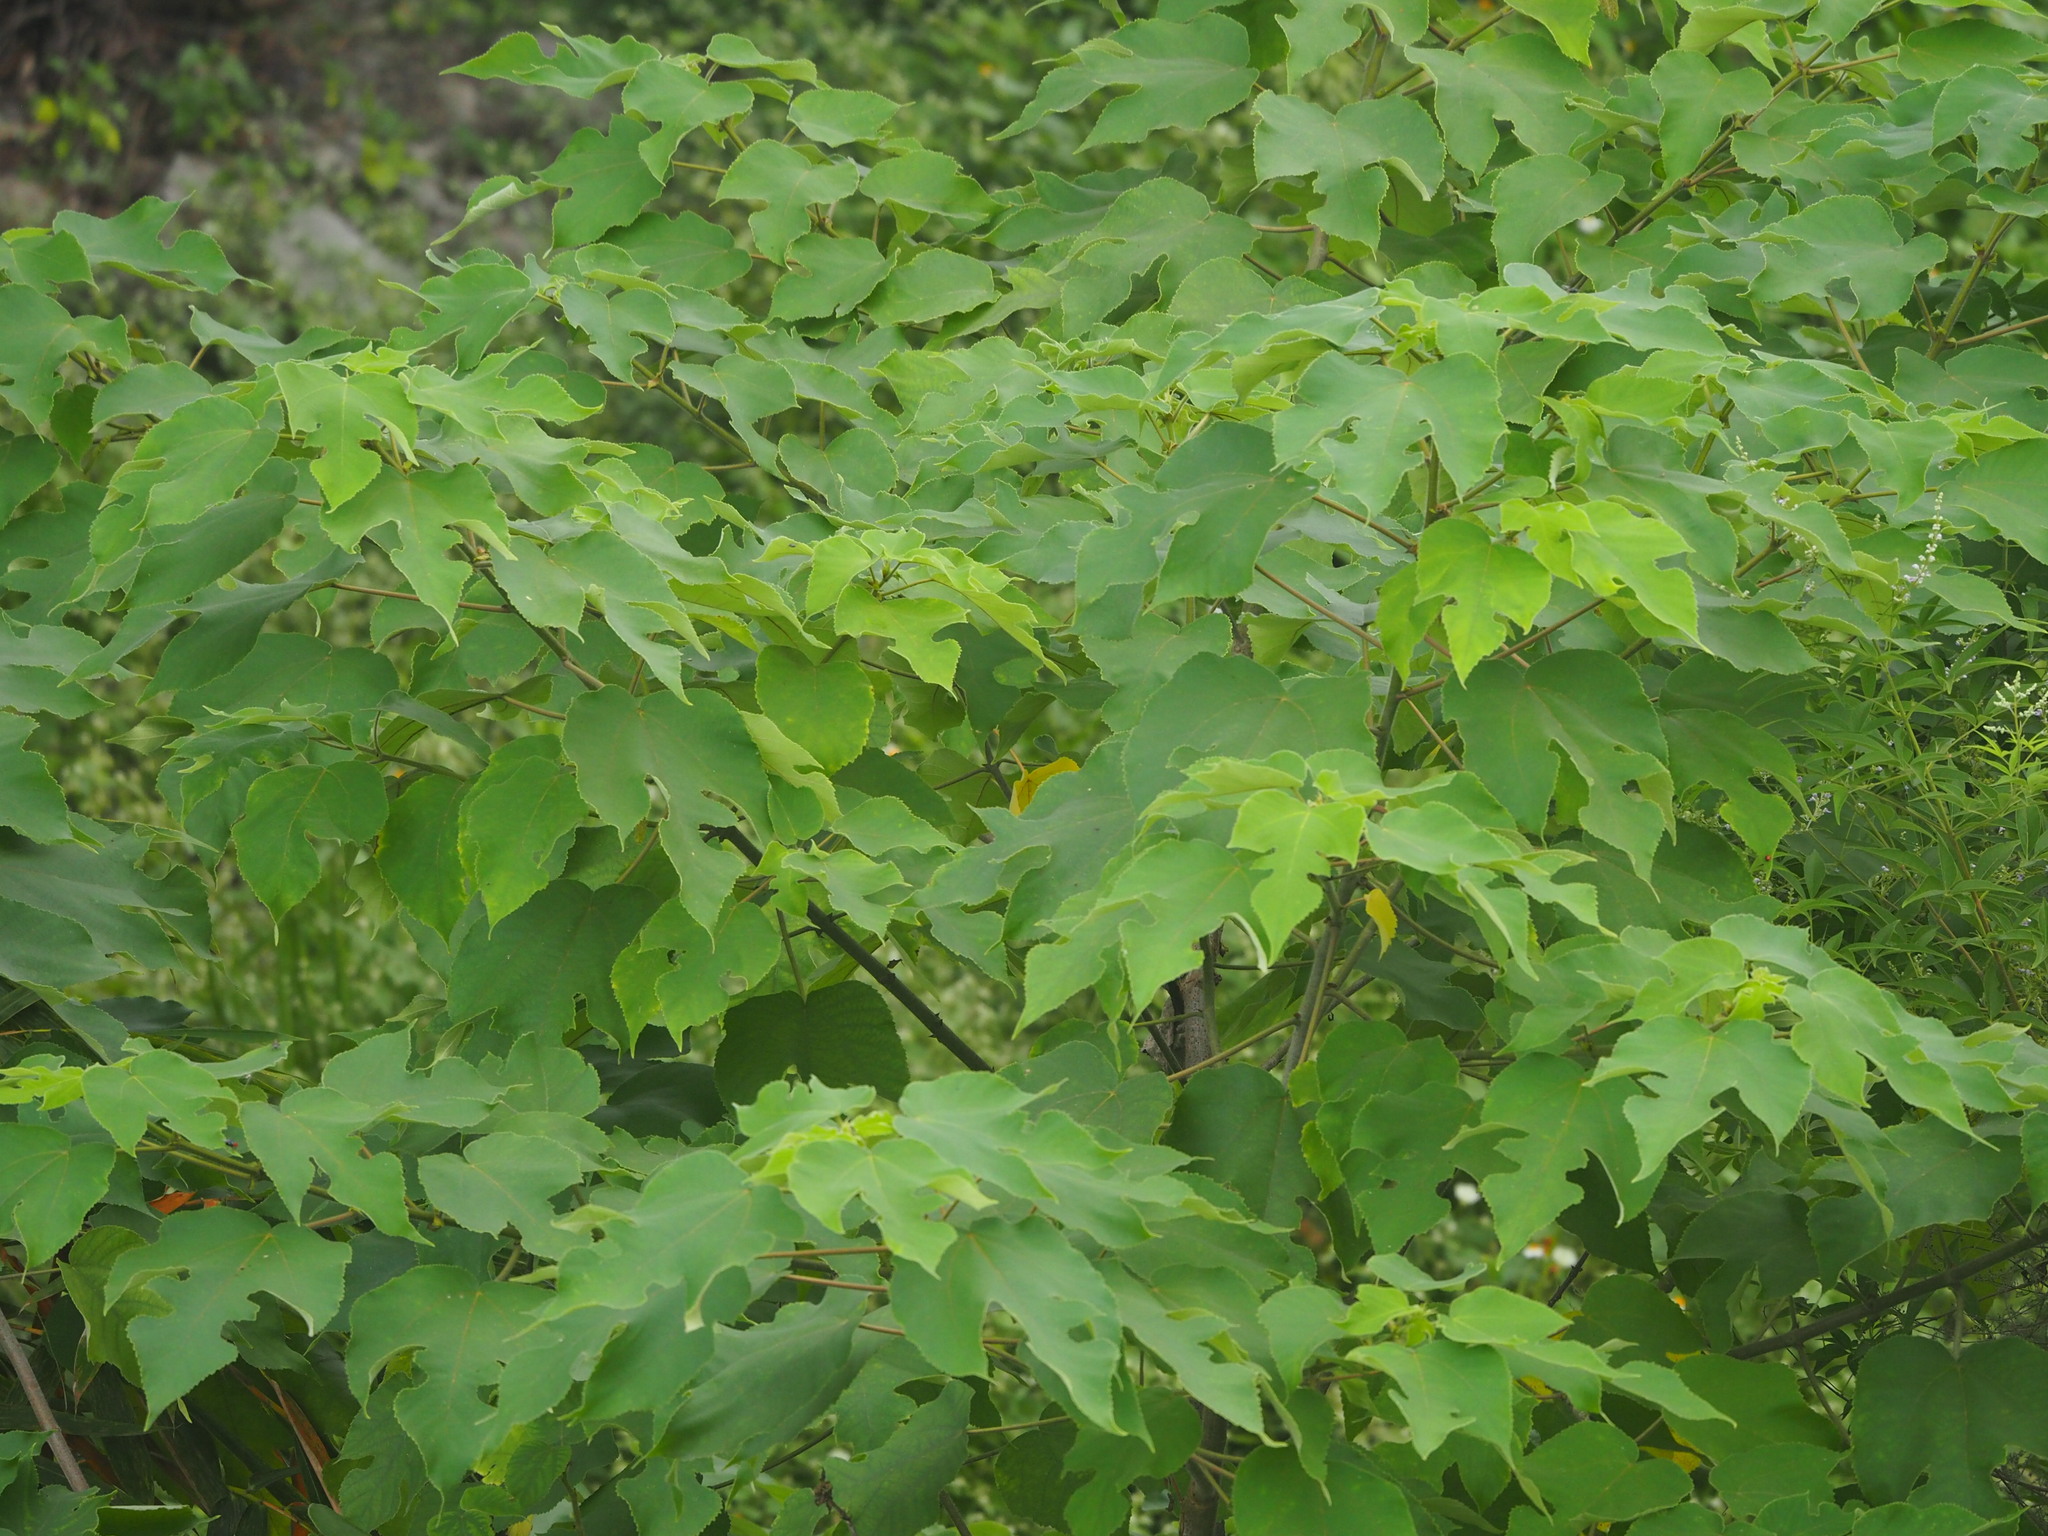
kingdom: Plantae
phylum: Tracheophyta
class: Magnoliopsida
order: Rosales
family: Moraceae
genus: Broussonetia
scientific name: Broussonetia papyrifera
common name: Paper mulberry
